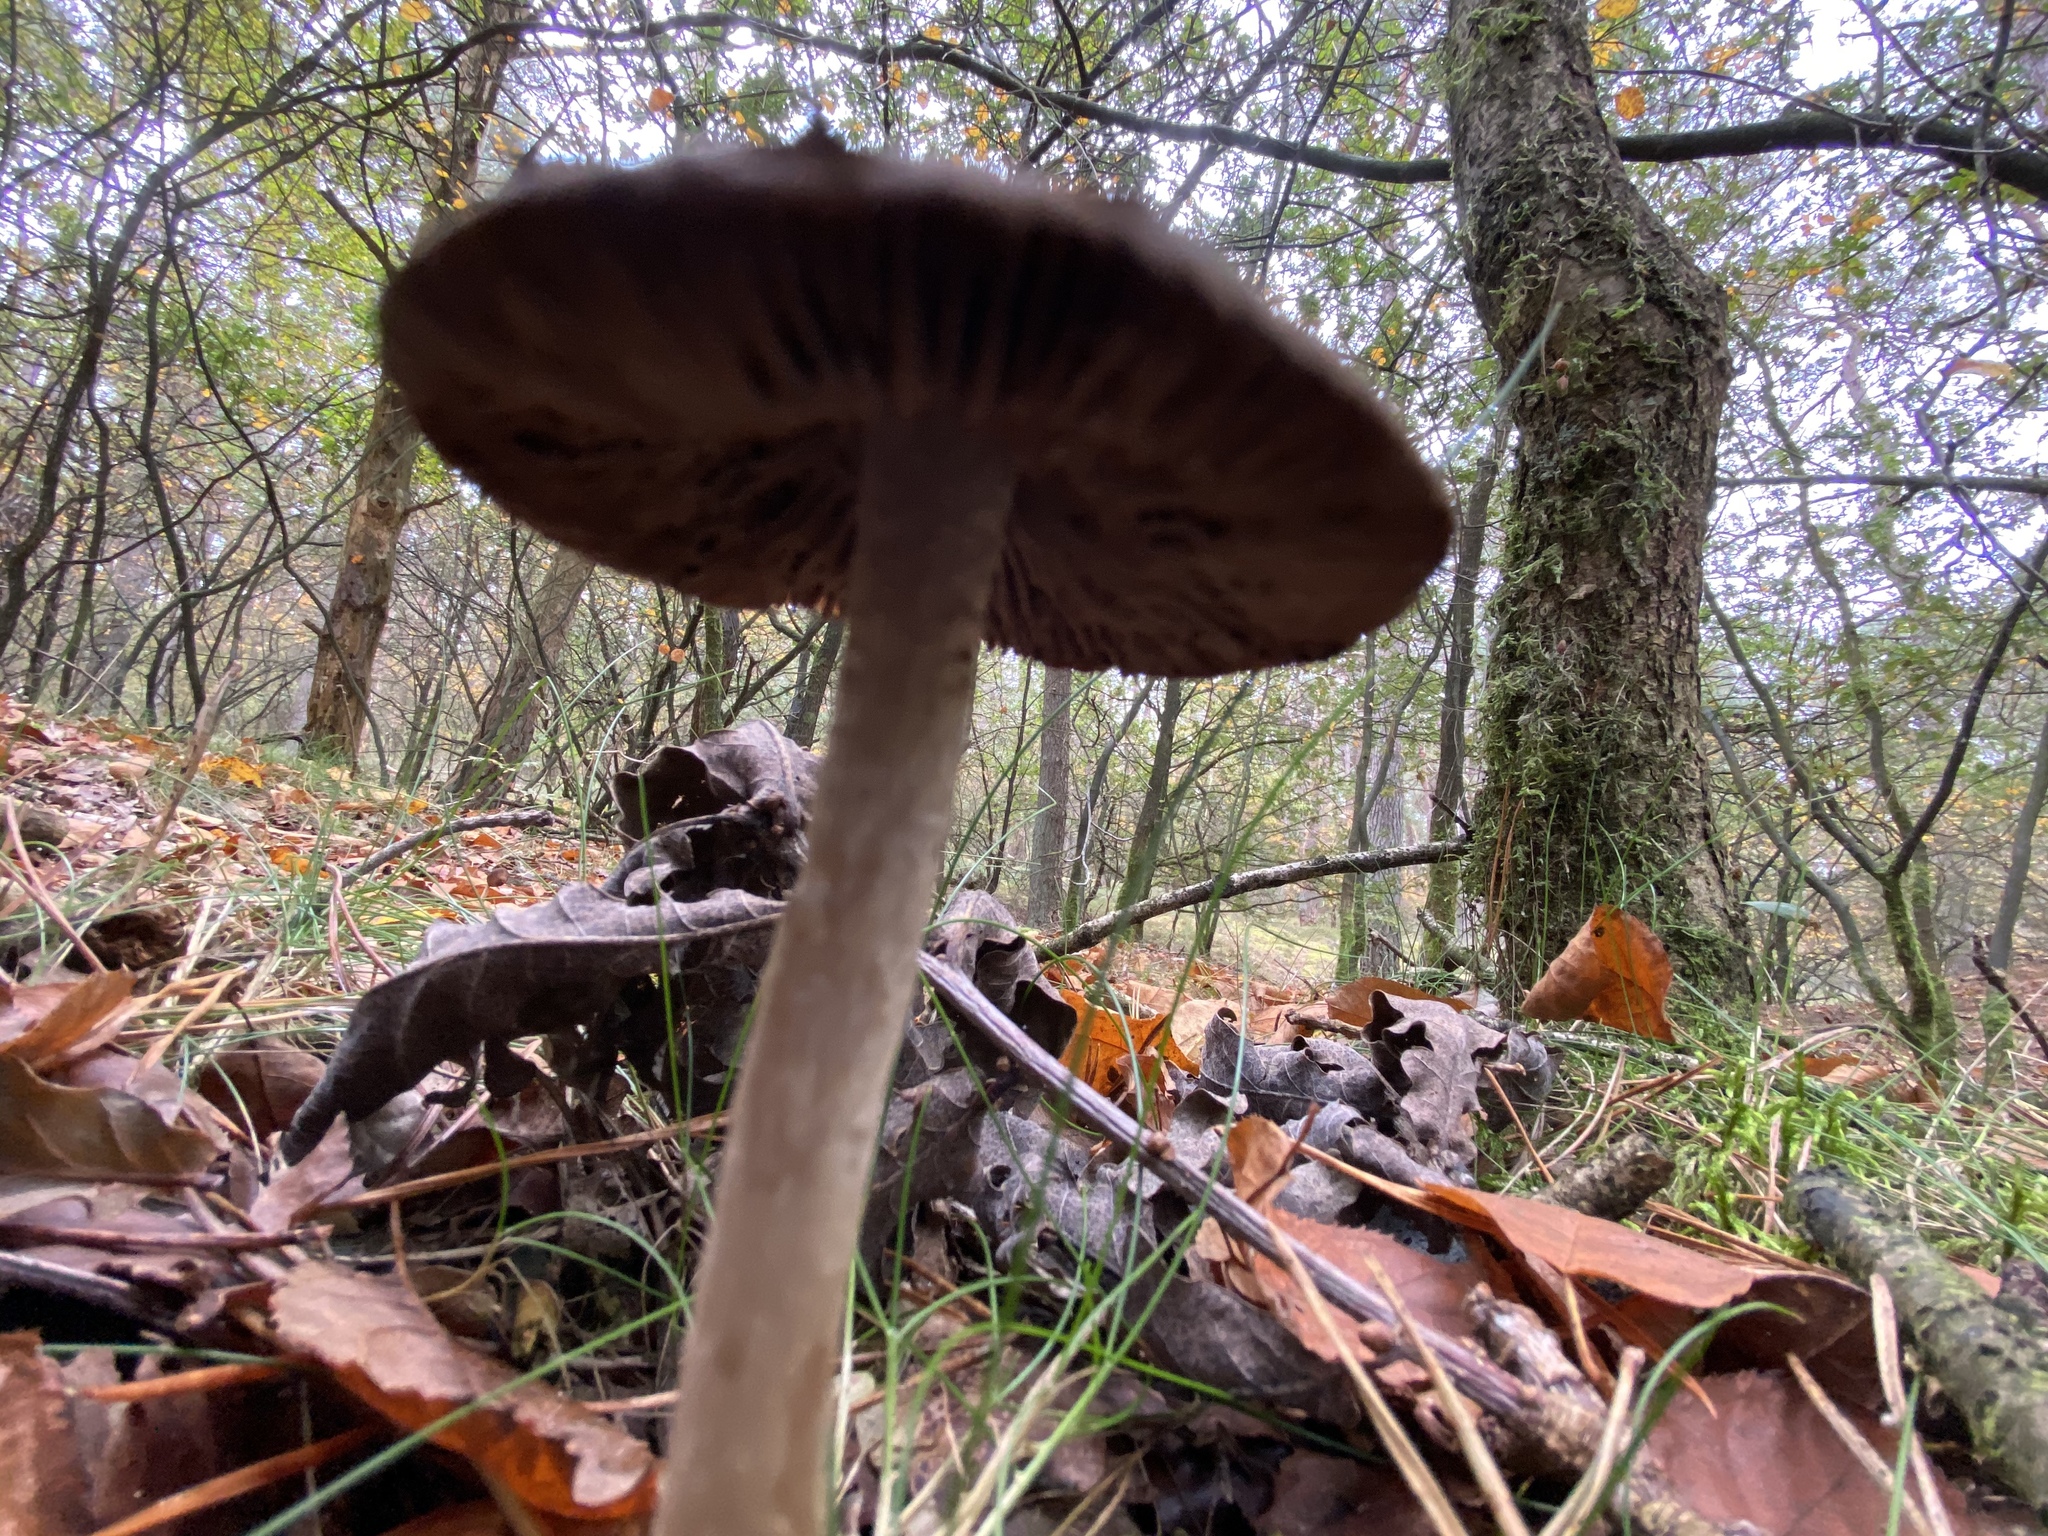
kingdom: Fungi
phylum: Basidiomycota
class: Agaricomycetes
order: Agaricales
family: Psathyrellaceae
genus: Psathyrella
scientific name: Psathyrella artemisiae
